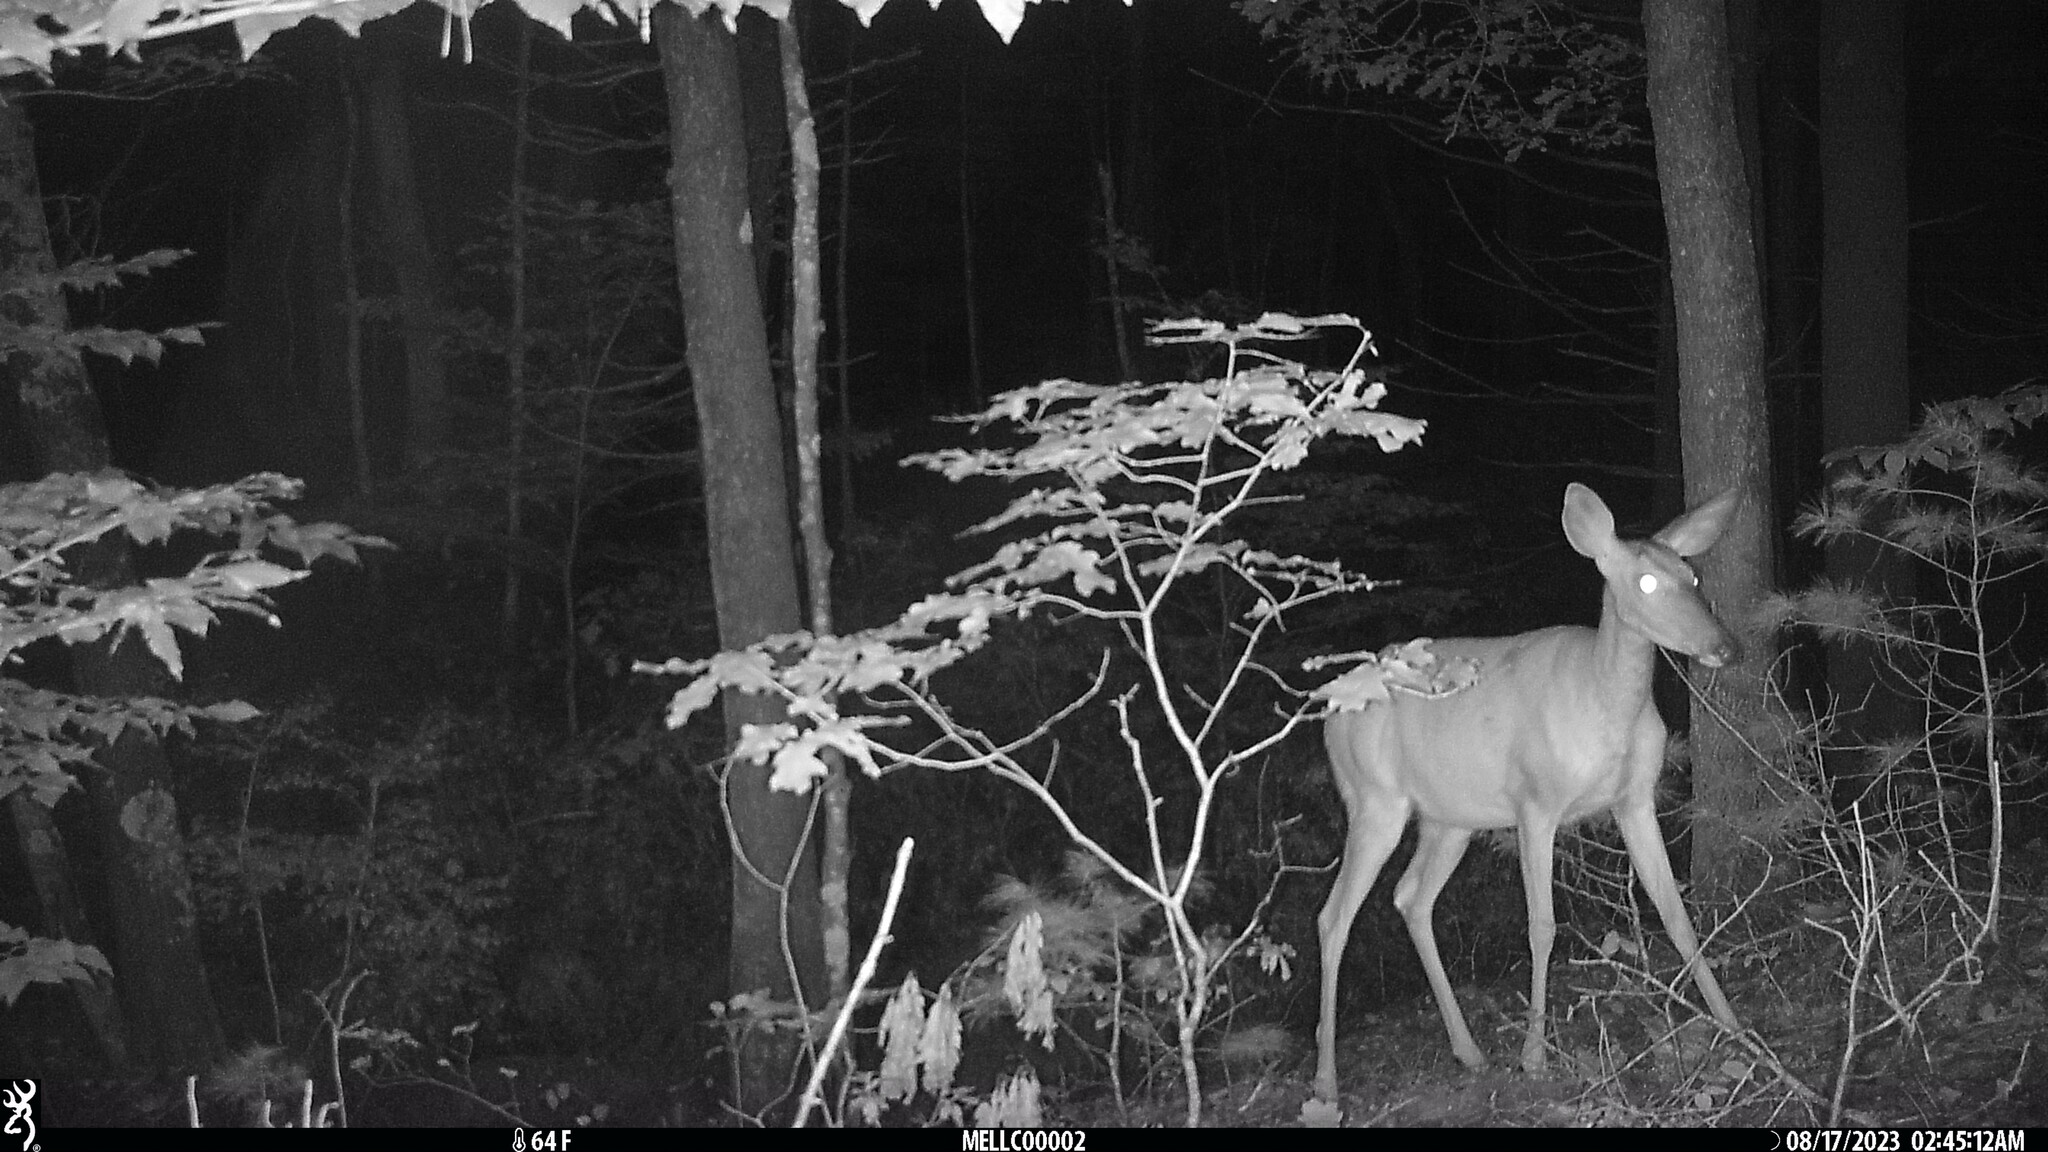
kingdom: Animalia
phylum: Chordata
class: Mammalia
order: Artiodactyla
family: Cervidae
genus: Odocoileus
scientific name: Odocoileus virginianus
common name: White-tailed deer
